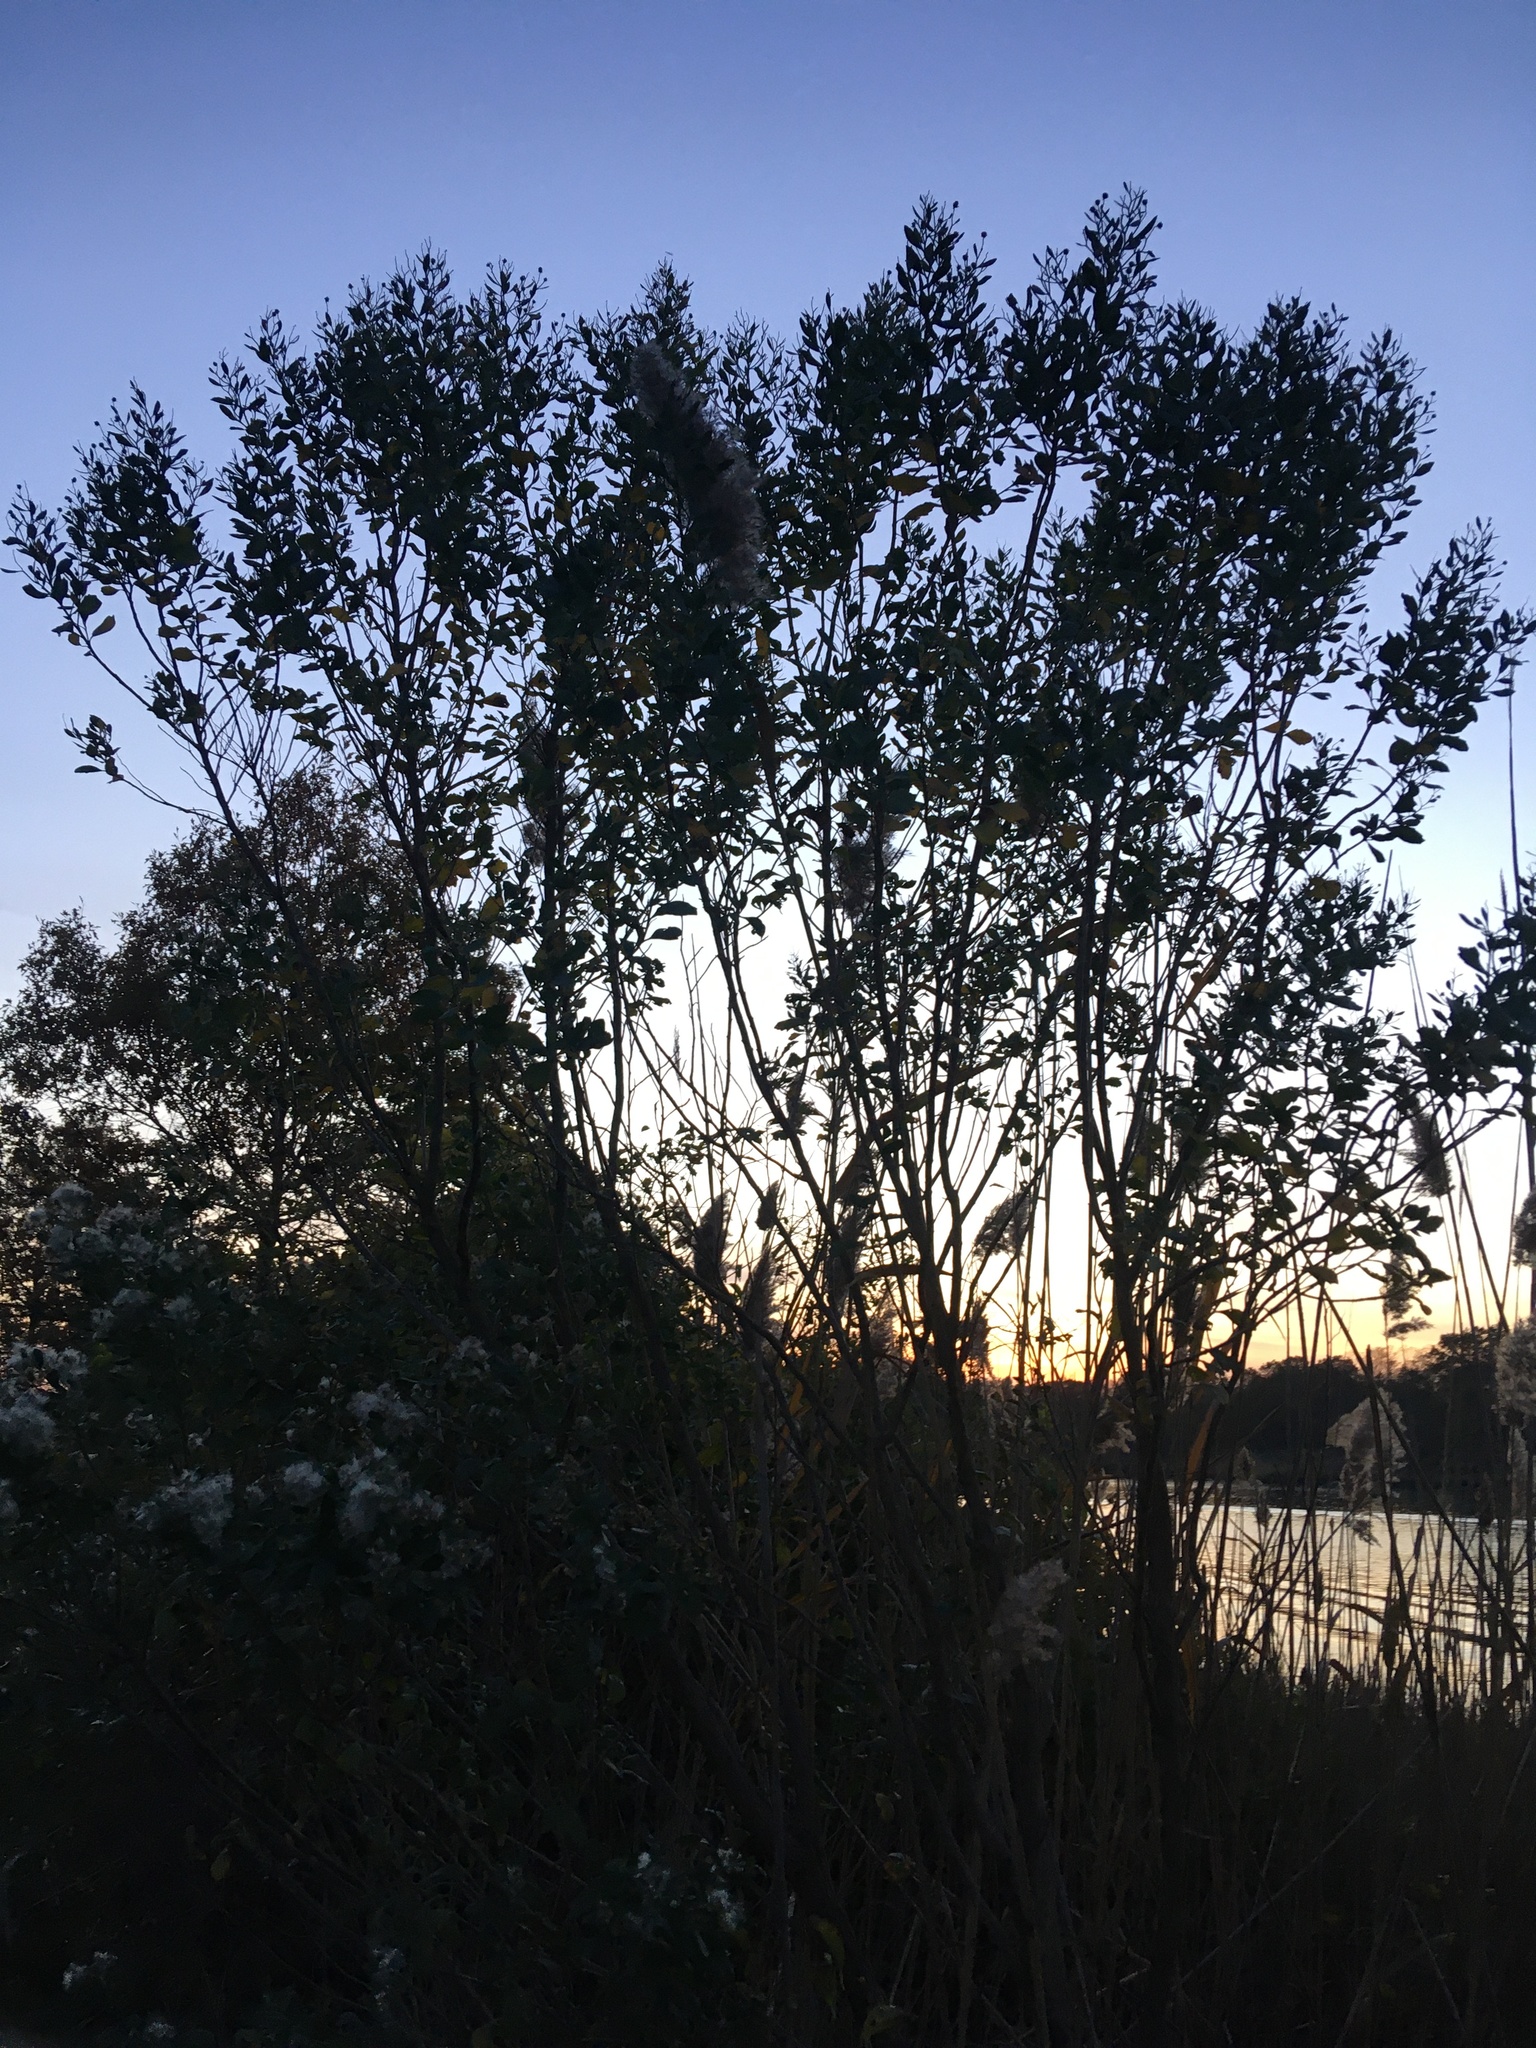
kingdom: Plantae
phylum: Tracheophyta
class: Magnoliopsida
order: Asterales
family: Asteraceae
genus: Baccharis
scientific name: Baccharis halimifolia
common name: Eastern baccharis
